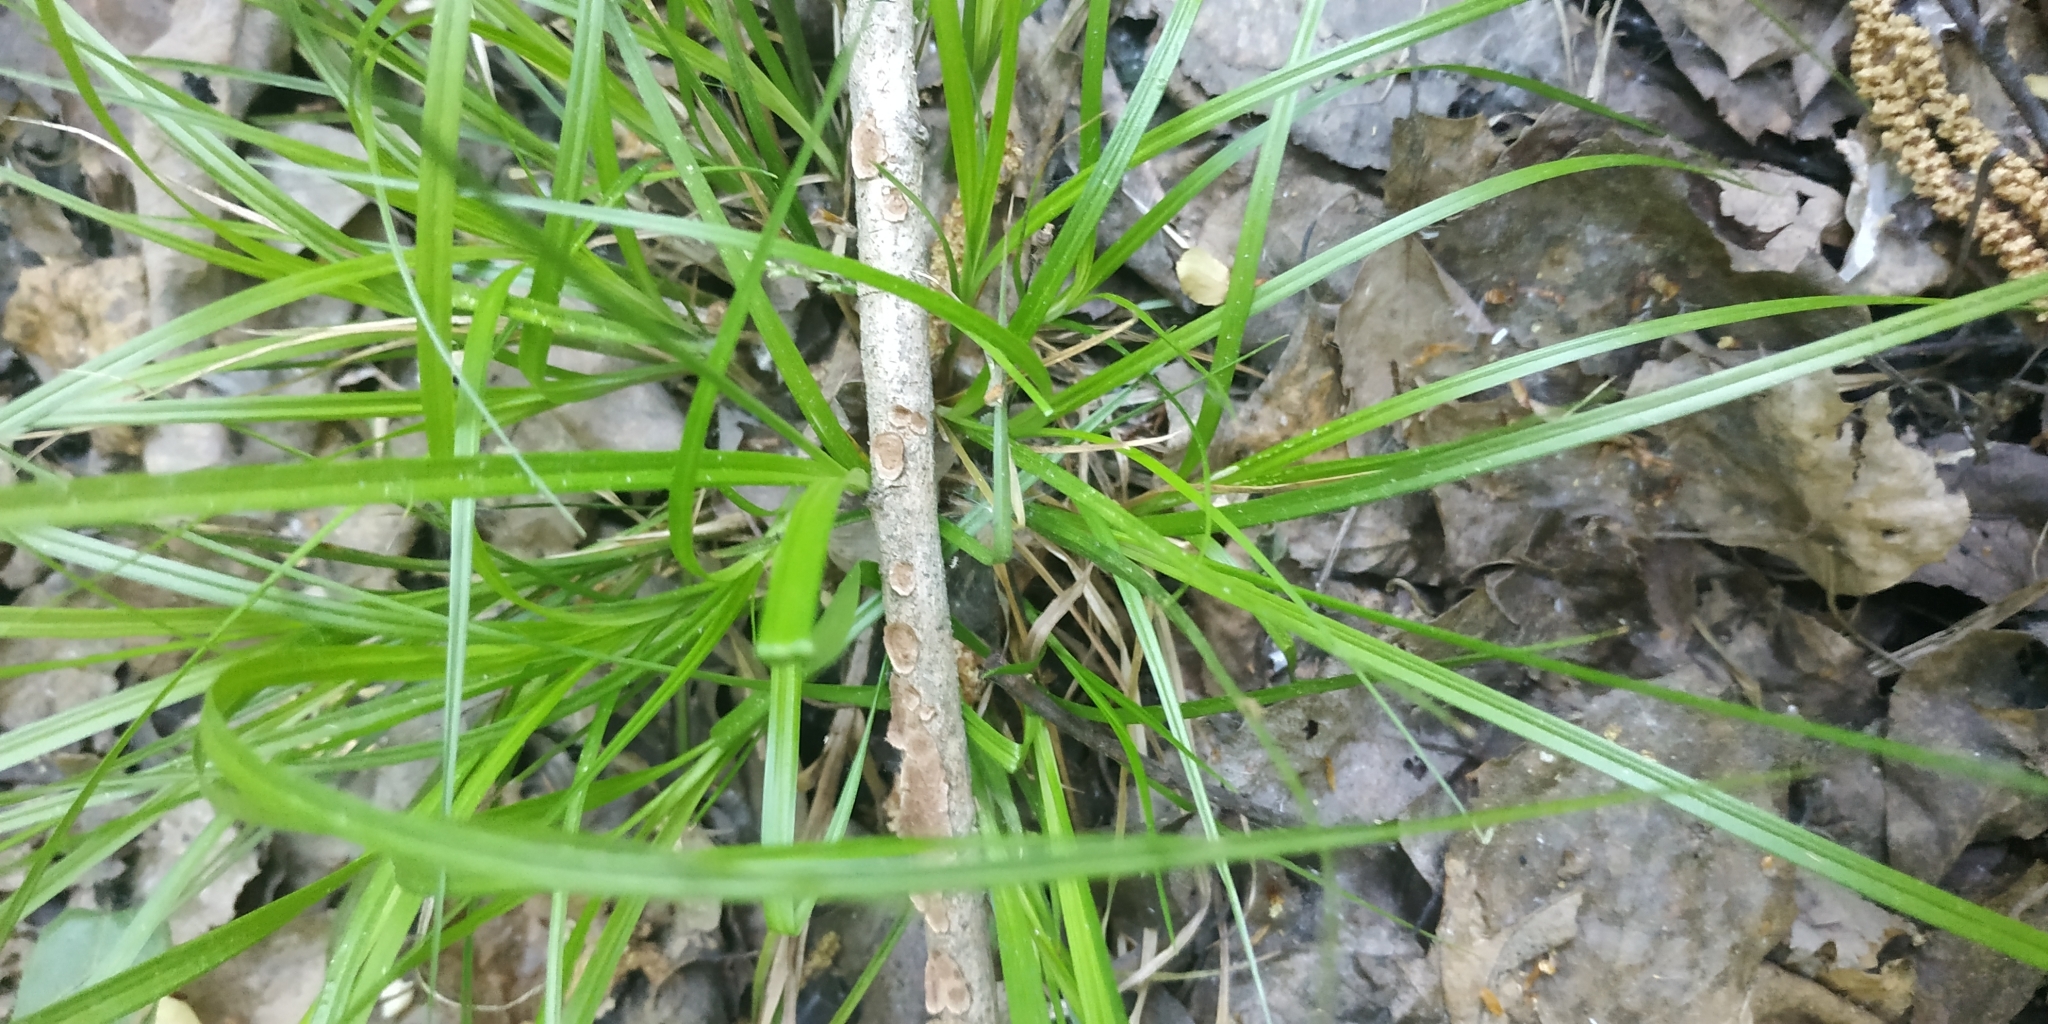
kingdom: Plantae
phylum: Tracheophyta
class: Liliopsida
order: Poales
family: Cyperaceae
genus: Carex
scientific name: Carex elongata
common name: Elongated sedge
